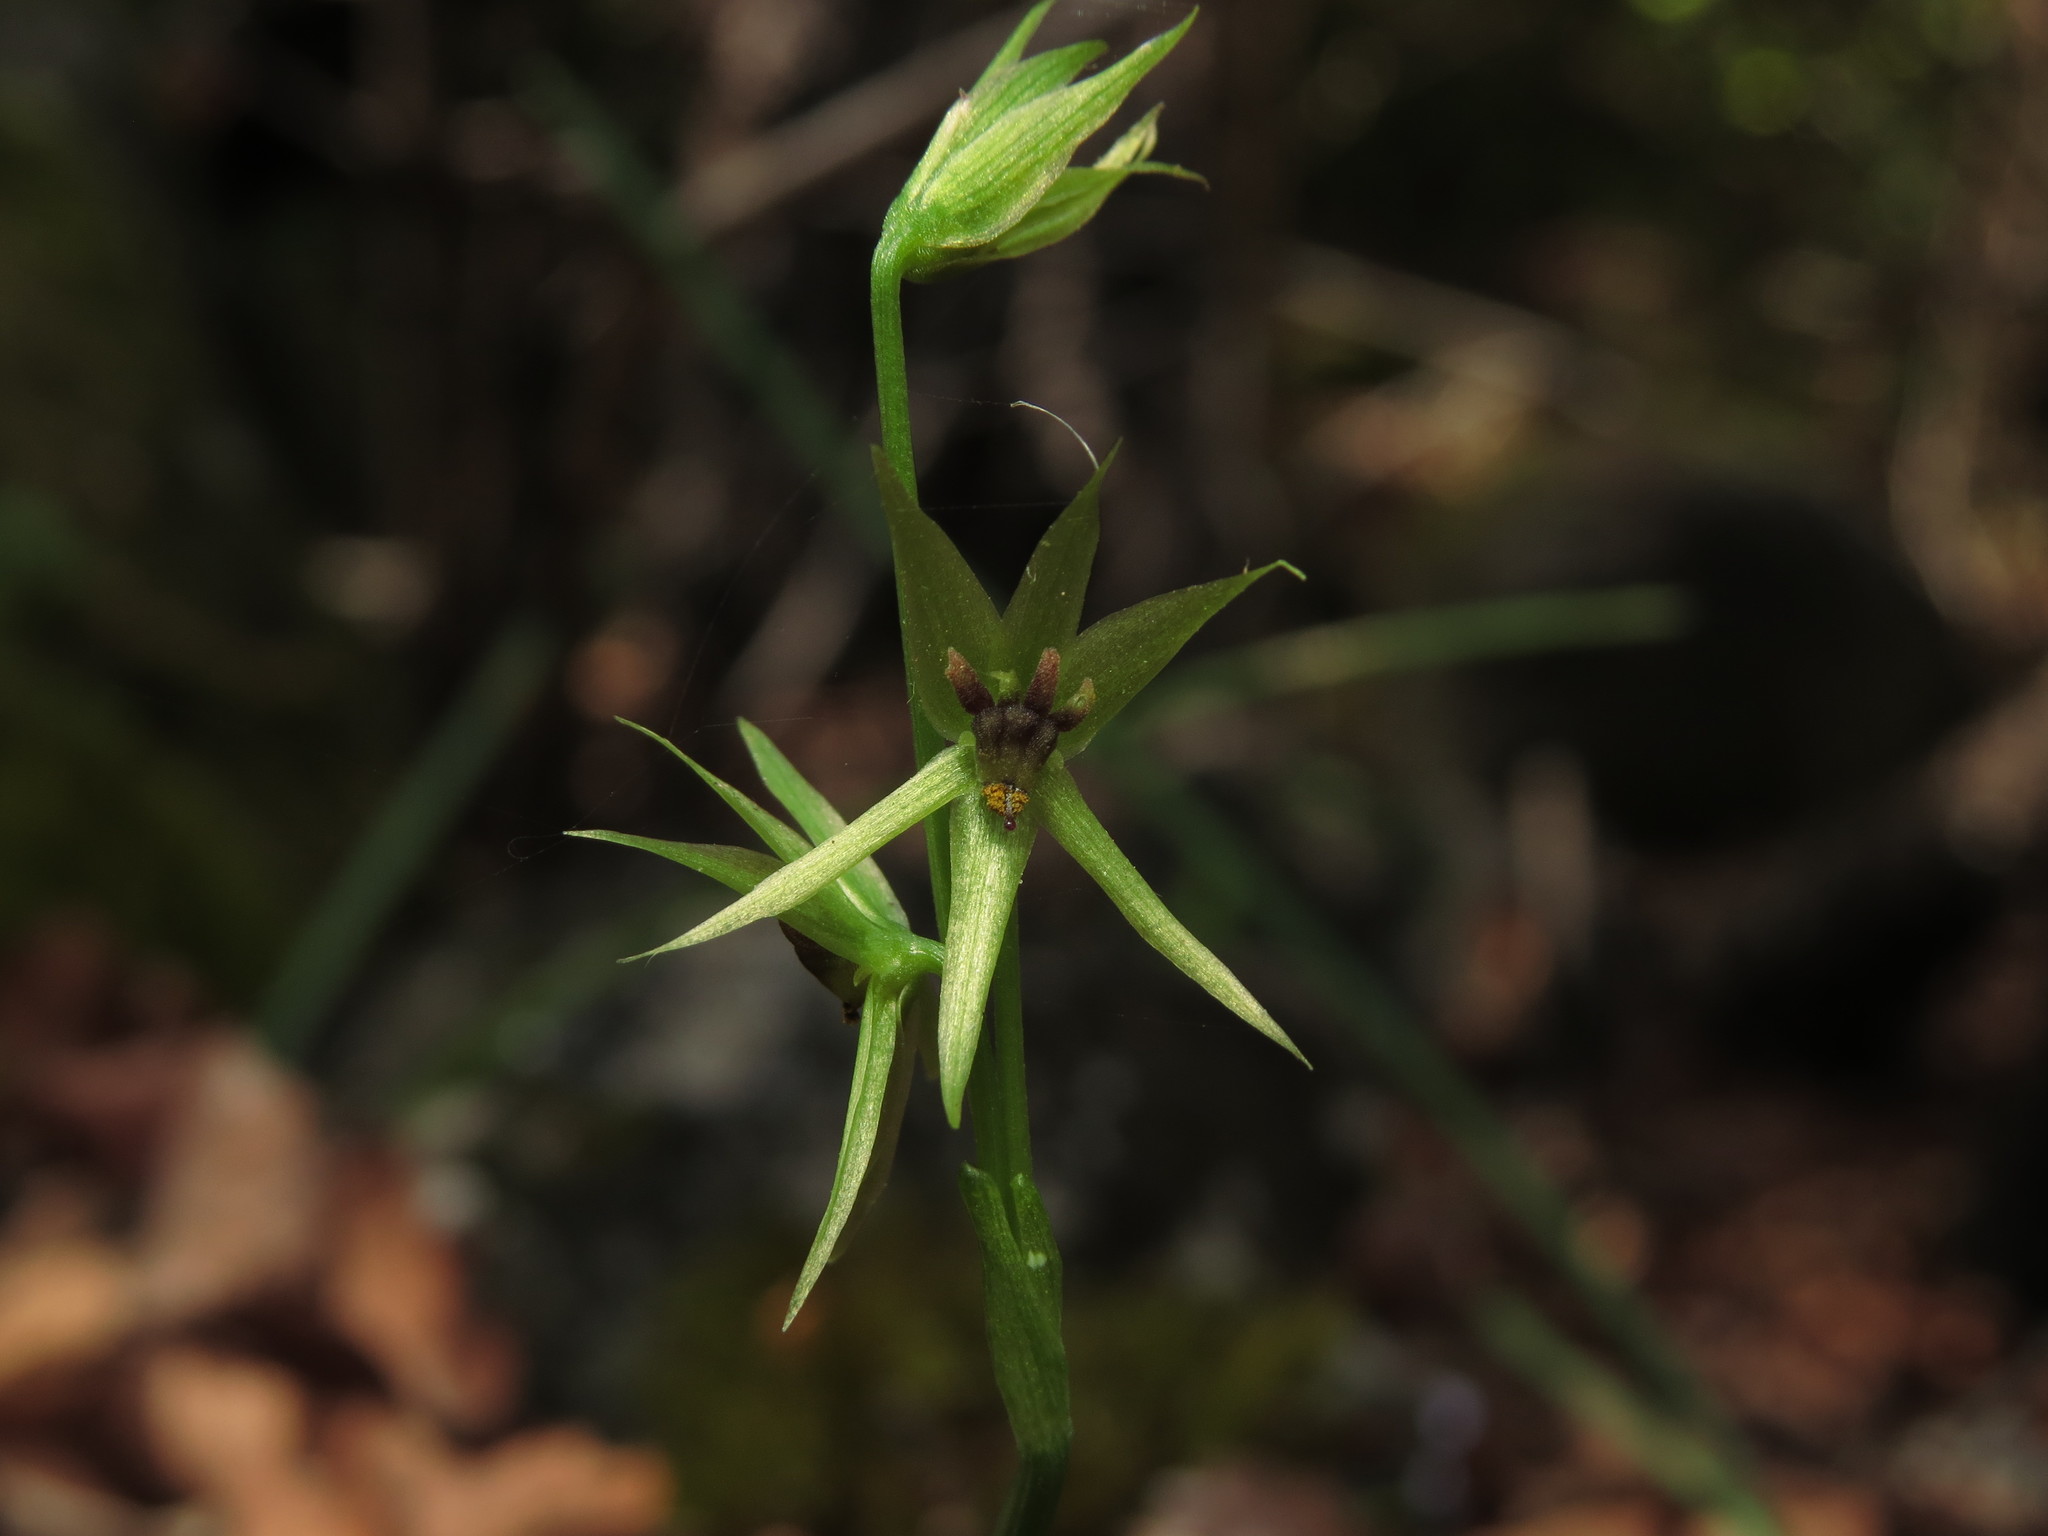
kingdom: Plantae
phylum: Tracheophyta
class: Liliopsida
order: Asparagales
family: Amaryllidaceae
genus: Miersia
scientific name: Miersia chilensis
